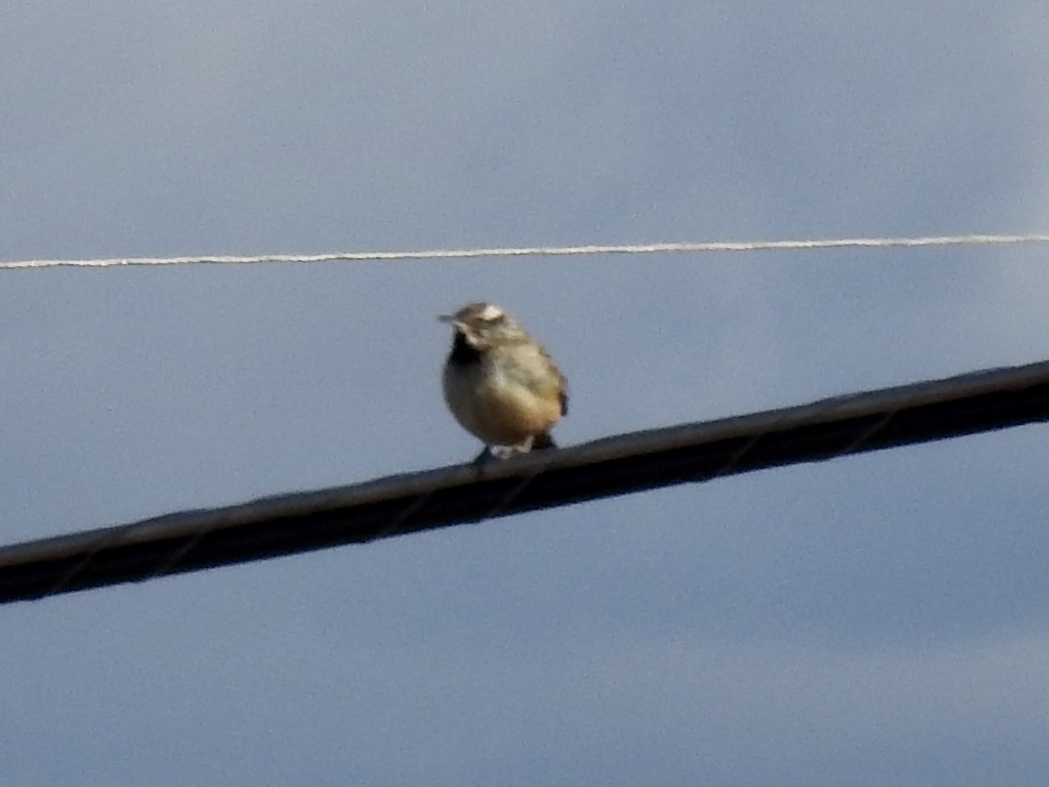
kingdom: Animalia
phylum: Chordata
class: Aves
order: Passeriformes
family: Troglodytidae
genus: Campylorhynchus
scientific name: Campylorhynchus brunneicapillus
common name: Cactus wren
